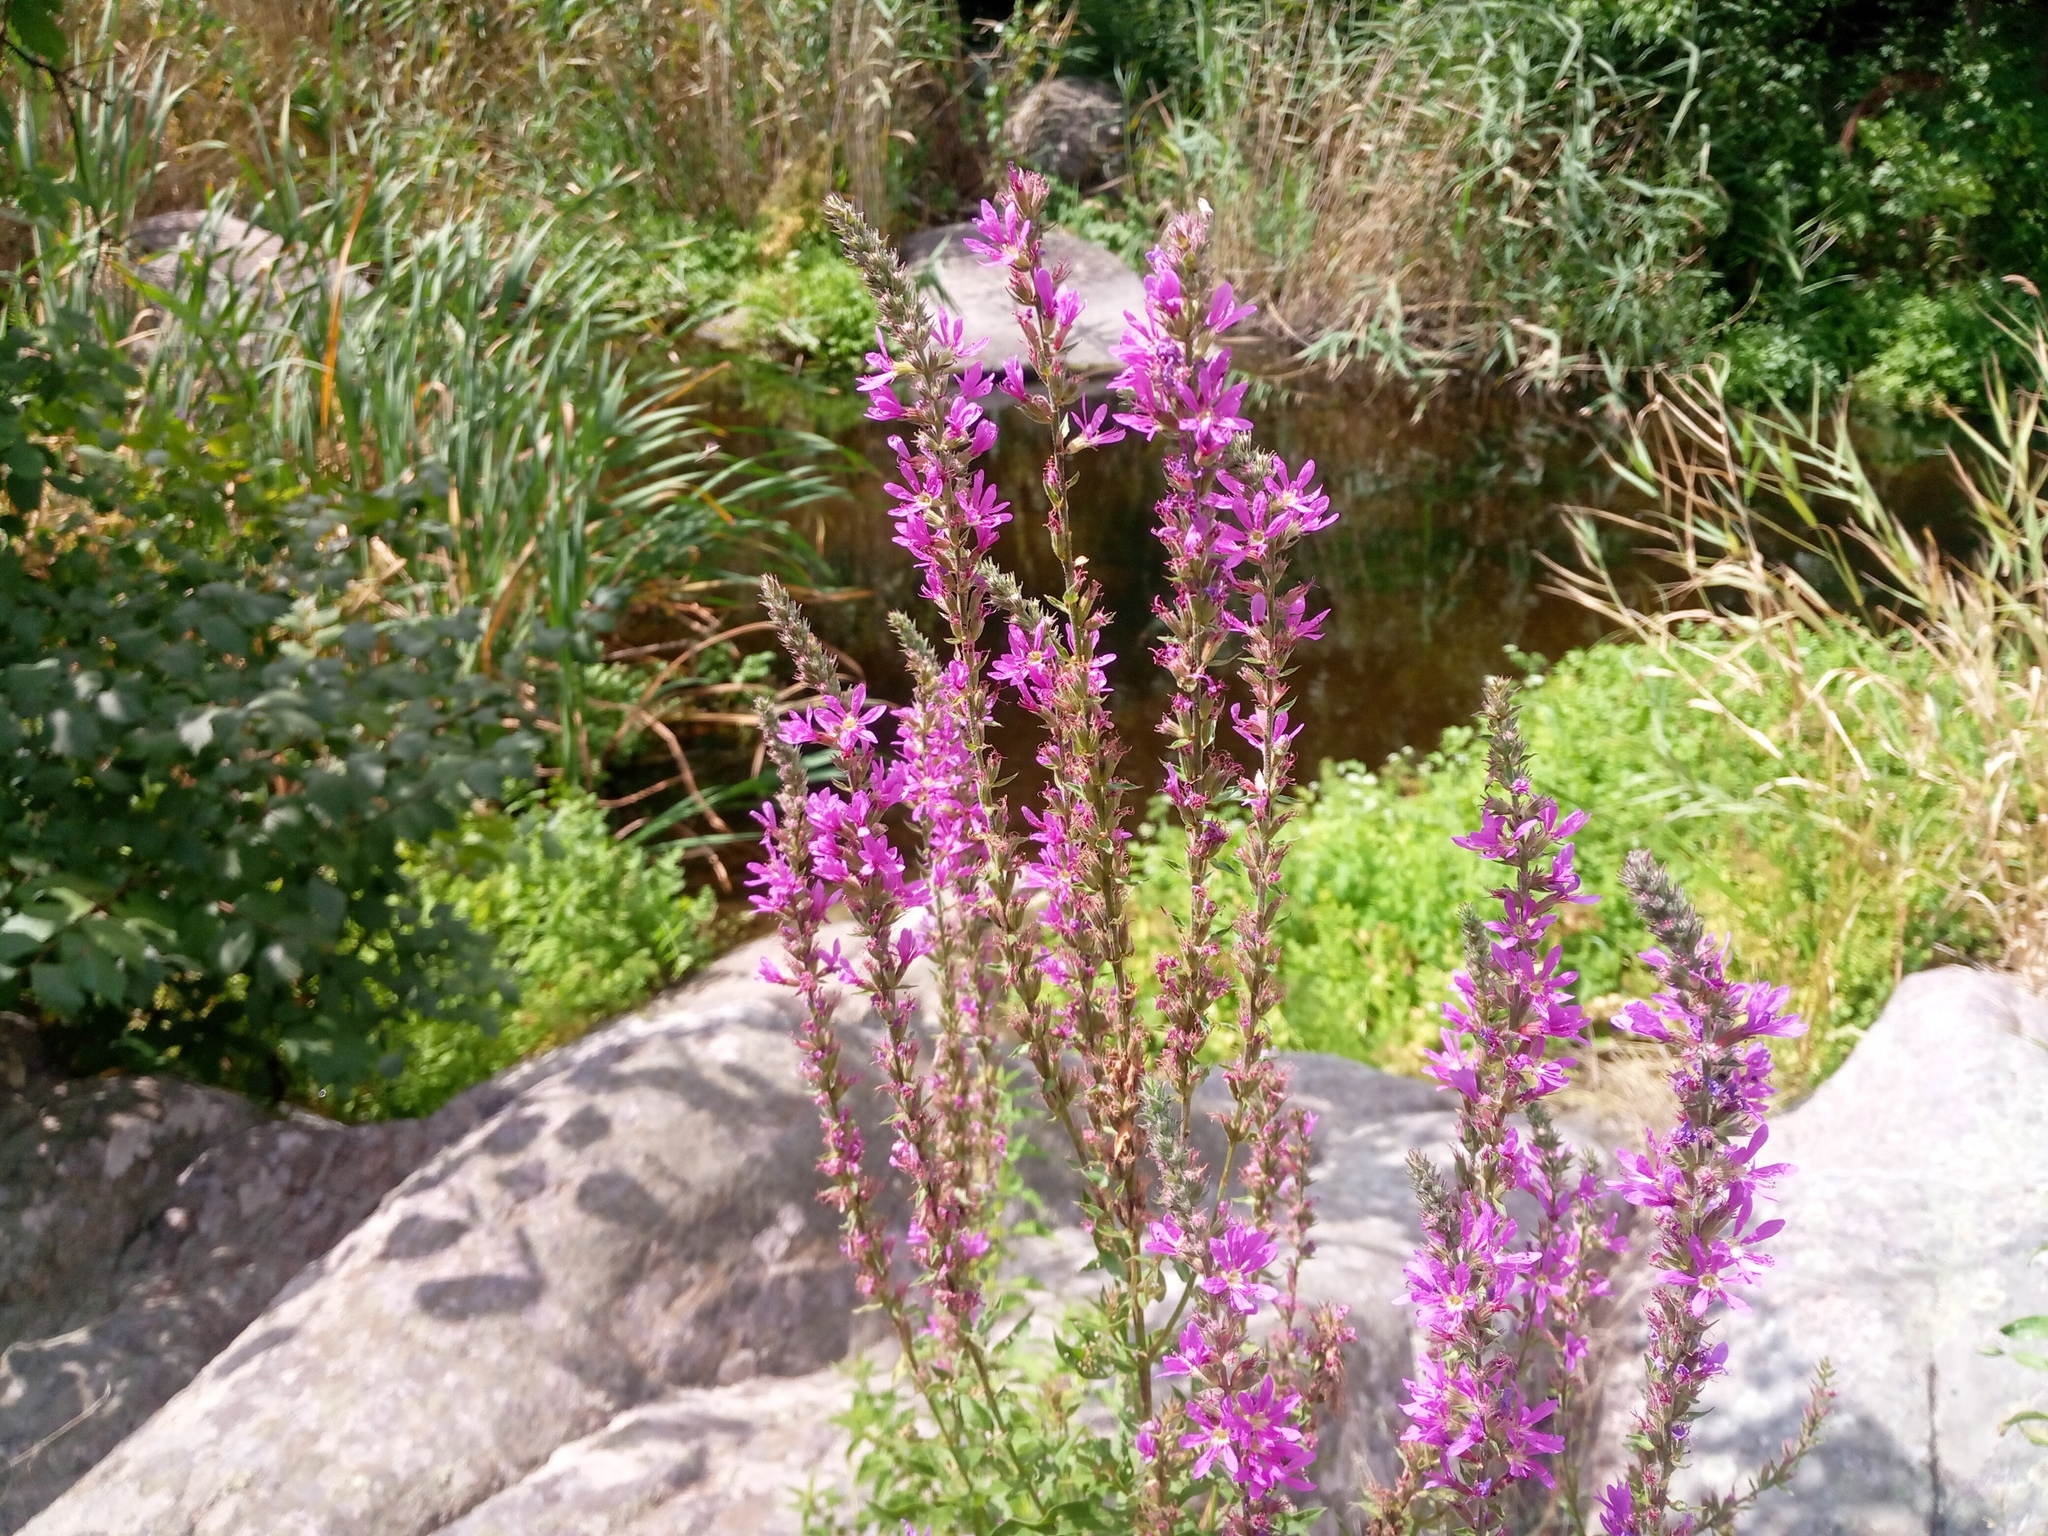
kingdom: Plantae
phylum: Tracheophyta
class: Magnoliopsida
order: Myrtales
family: Lythraceae
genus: Lythrum
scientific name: Lythrum salicaria
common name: Purple loosestrife
